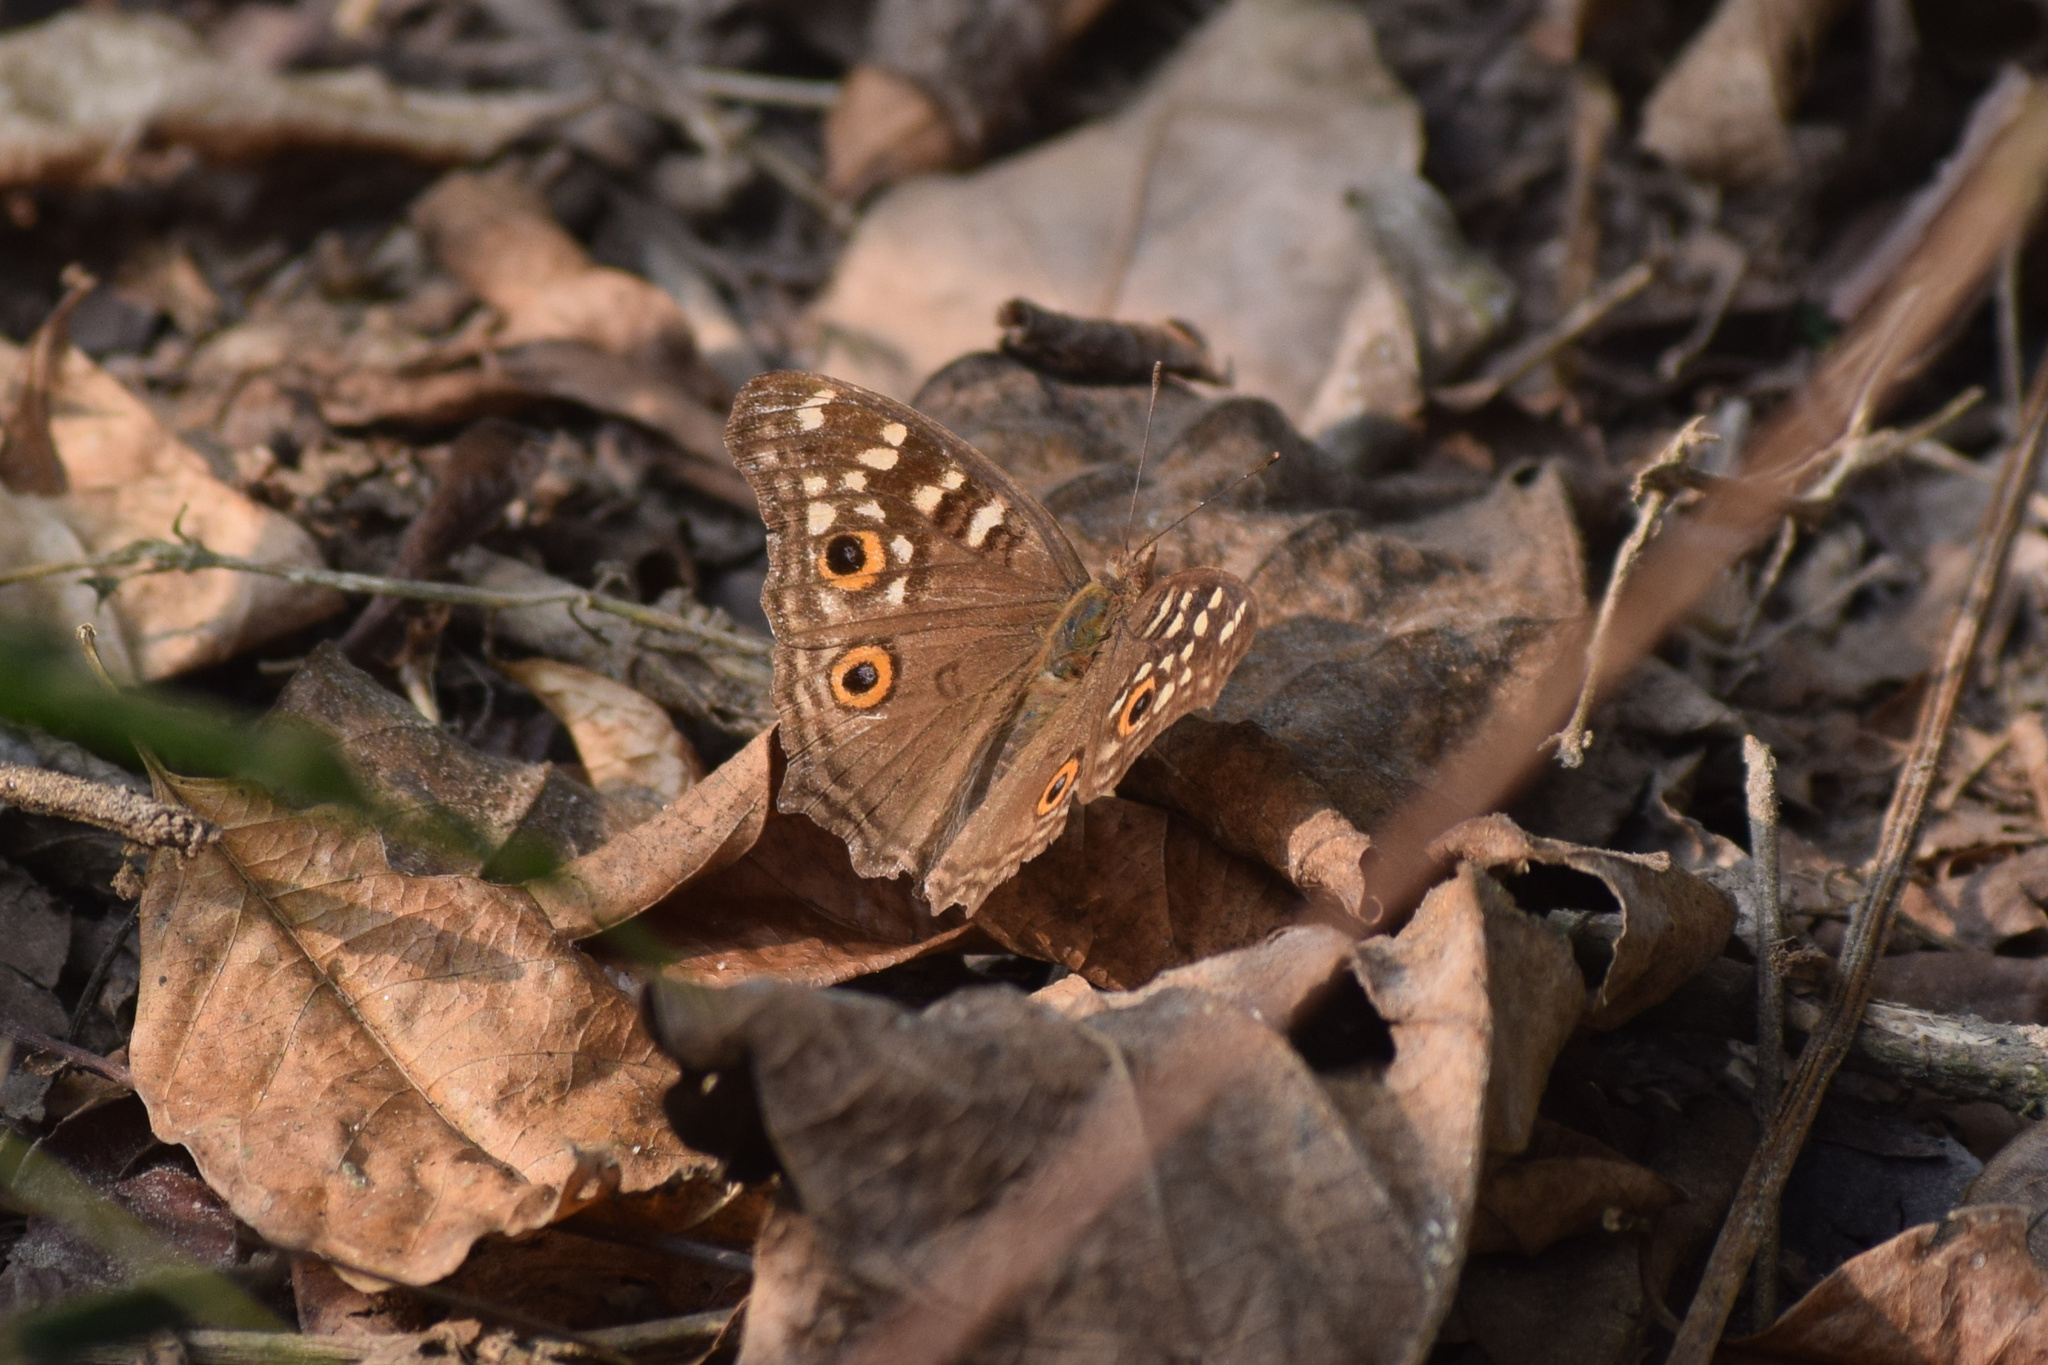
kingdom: Animalia
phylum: Arthropoda
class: Insecta
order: Lepidoptera
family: Nymphalidae
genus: Junonia
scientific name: Junonia lemonias
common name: Lemon pansy
